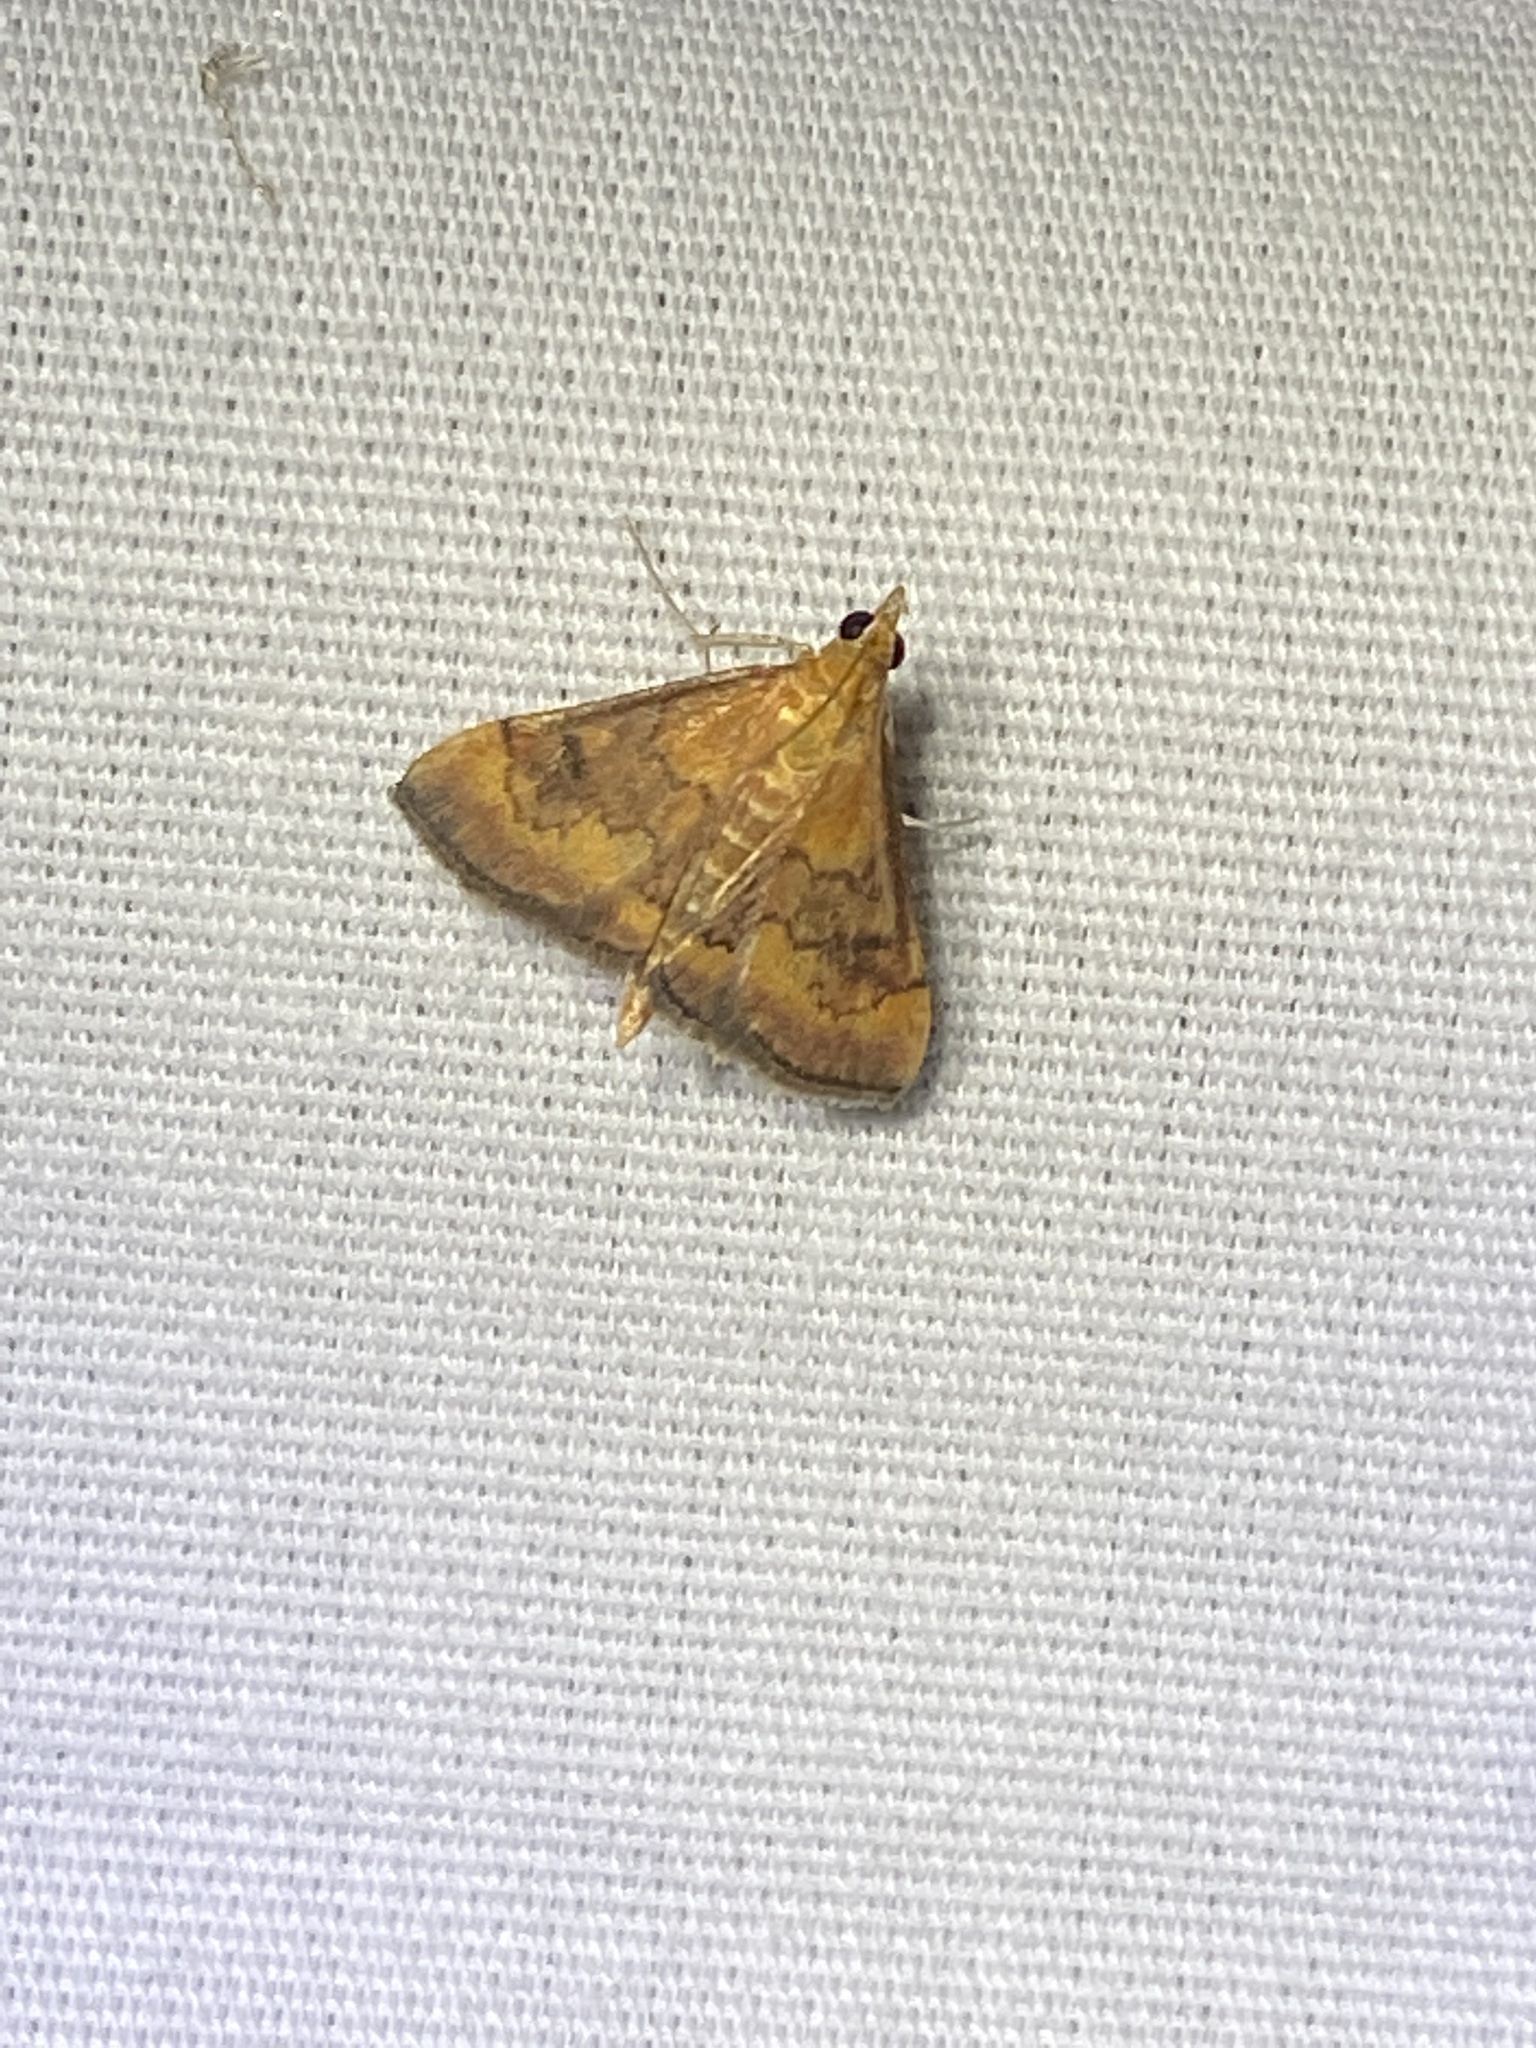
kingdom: Animalia
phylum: Arthropoda
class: Insecta
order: Lepidoptera
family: Crambidae
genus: Pyrausta
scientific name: Pyrausta rubricalis
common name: Variable reddish pyrausta
